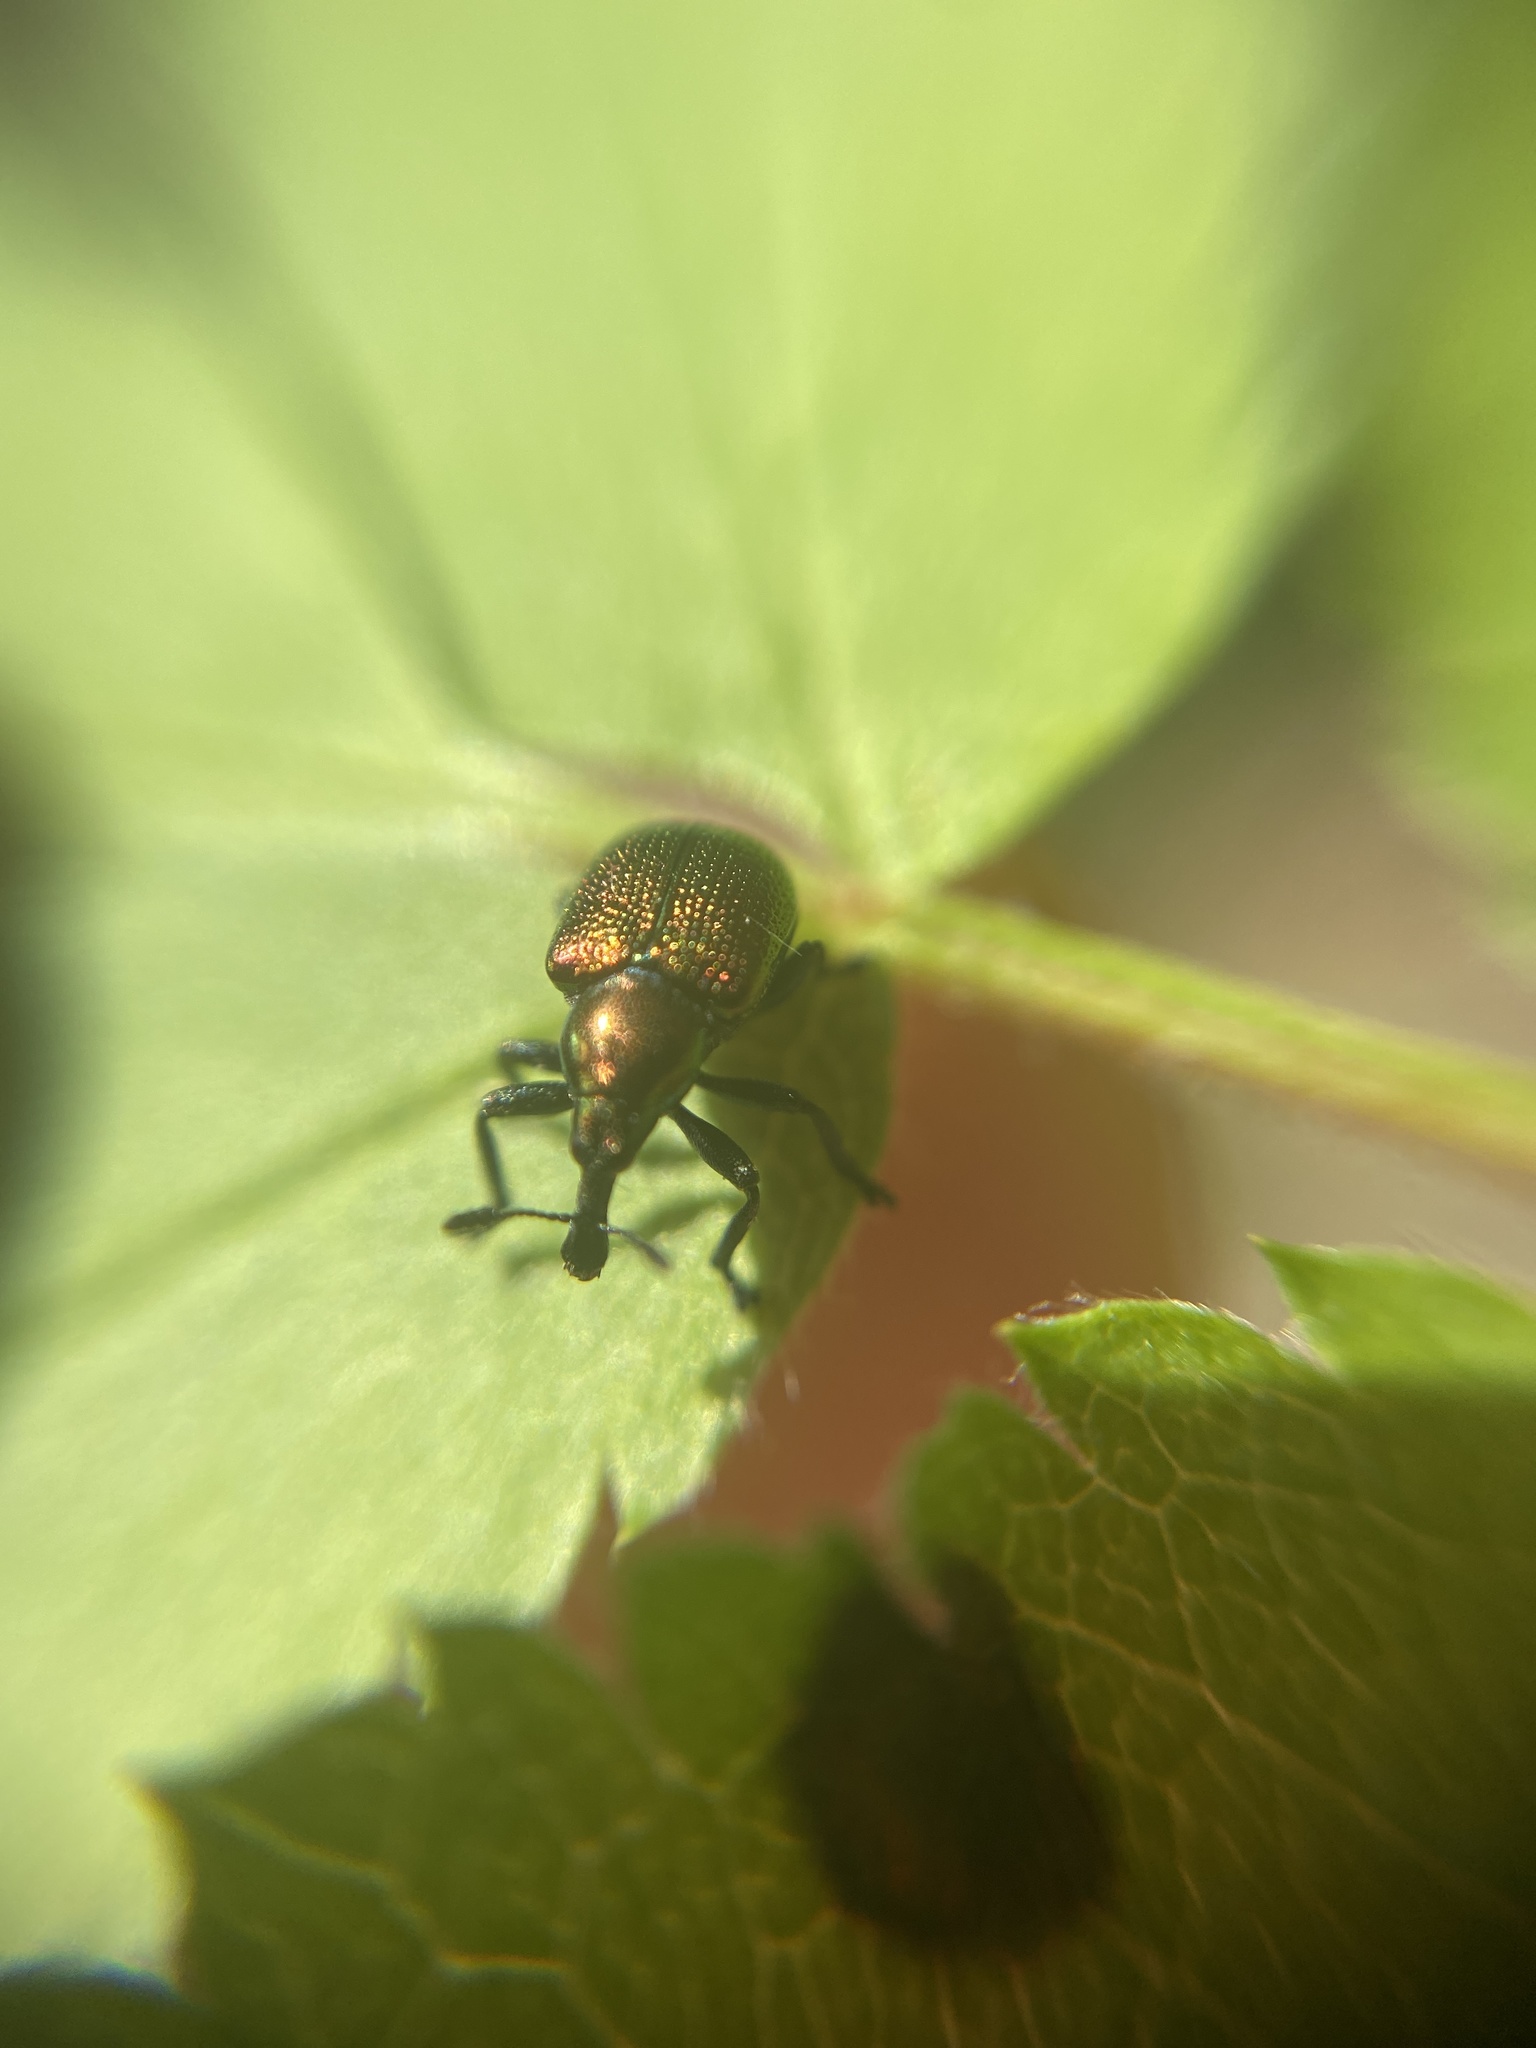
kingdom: Animalia
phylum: Arthropoda
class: Insecta
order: Coleoptera
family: Attelabidae
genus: Byctiscus
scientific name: Byctiscus populi
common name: Leaf-rolling weevil
